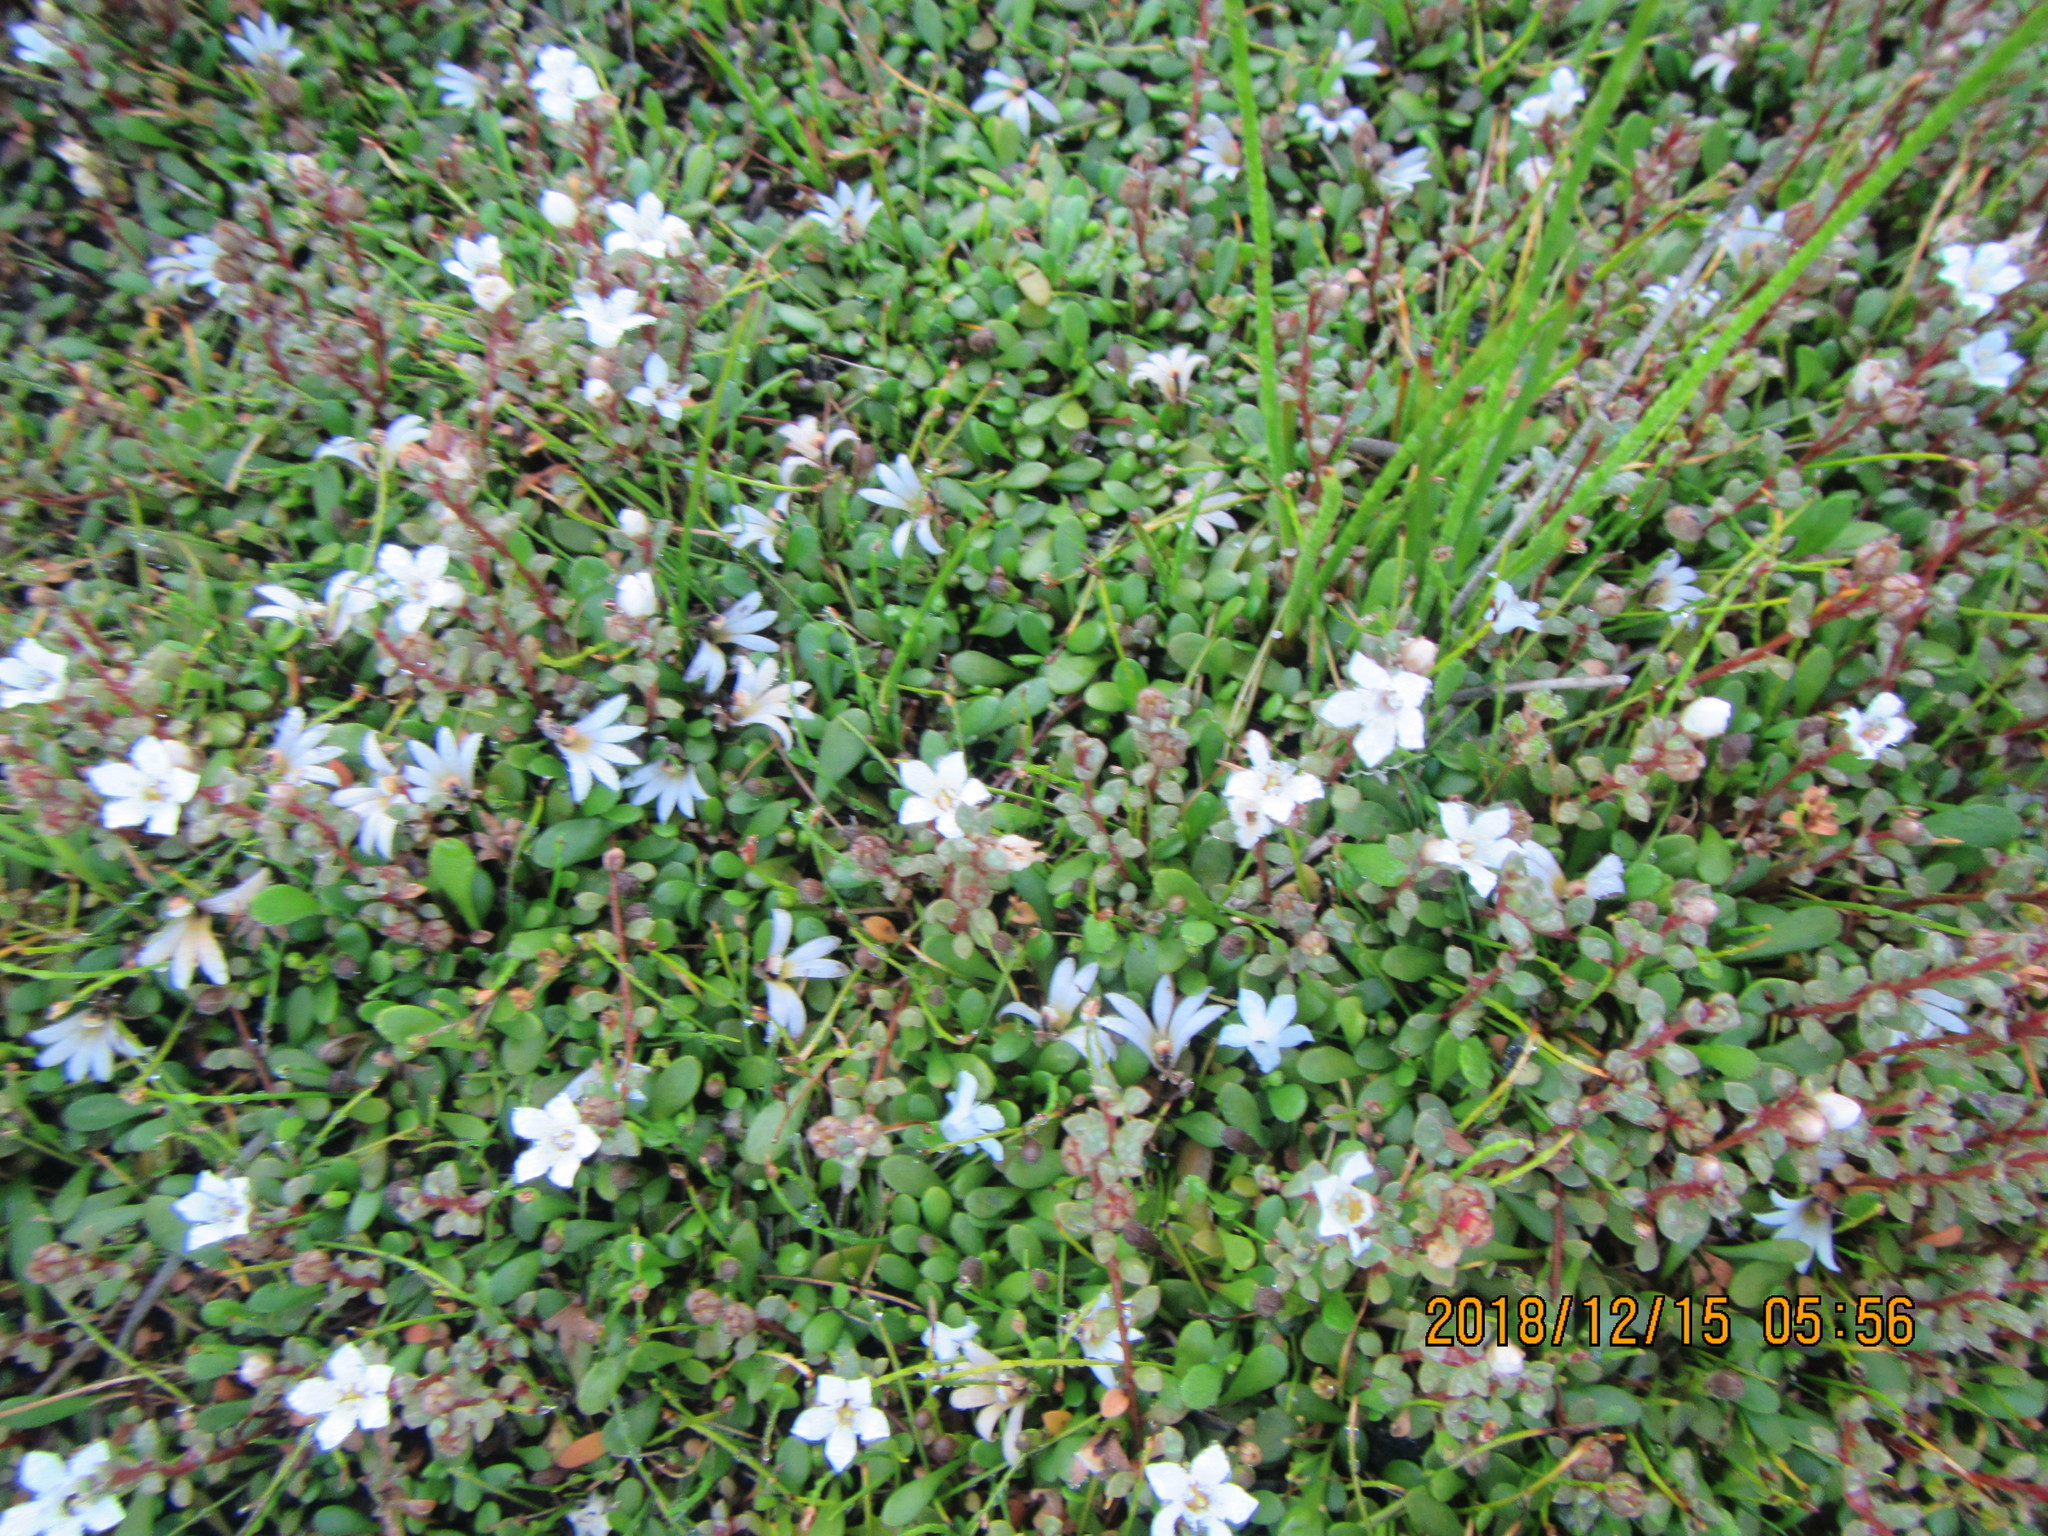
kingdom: Plantae
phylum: Tracheophyta
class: Magnoliopsida
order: Ericales
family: Primulaceae
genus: Samolus
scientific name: Samolus repens
